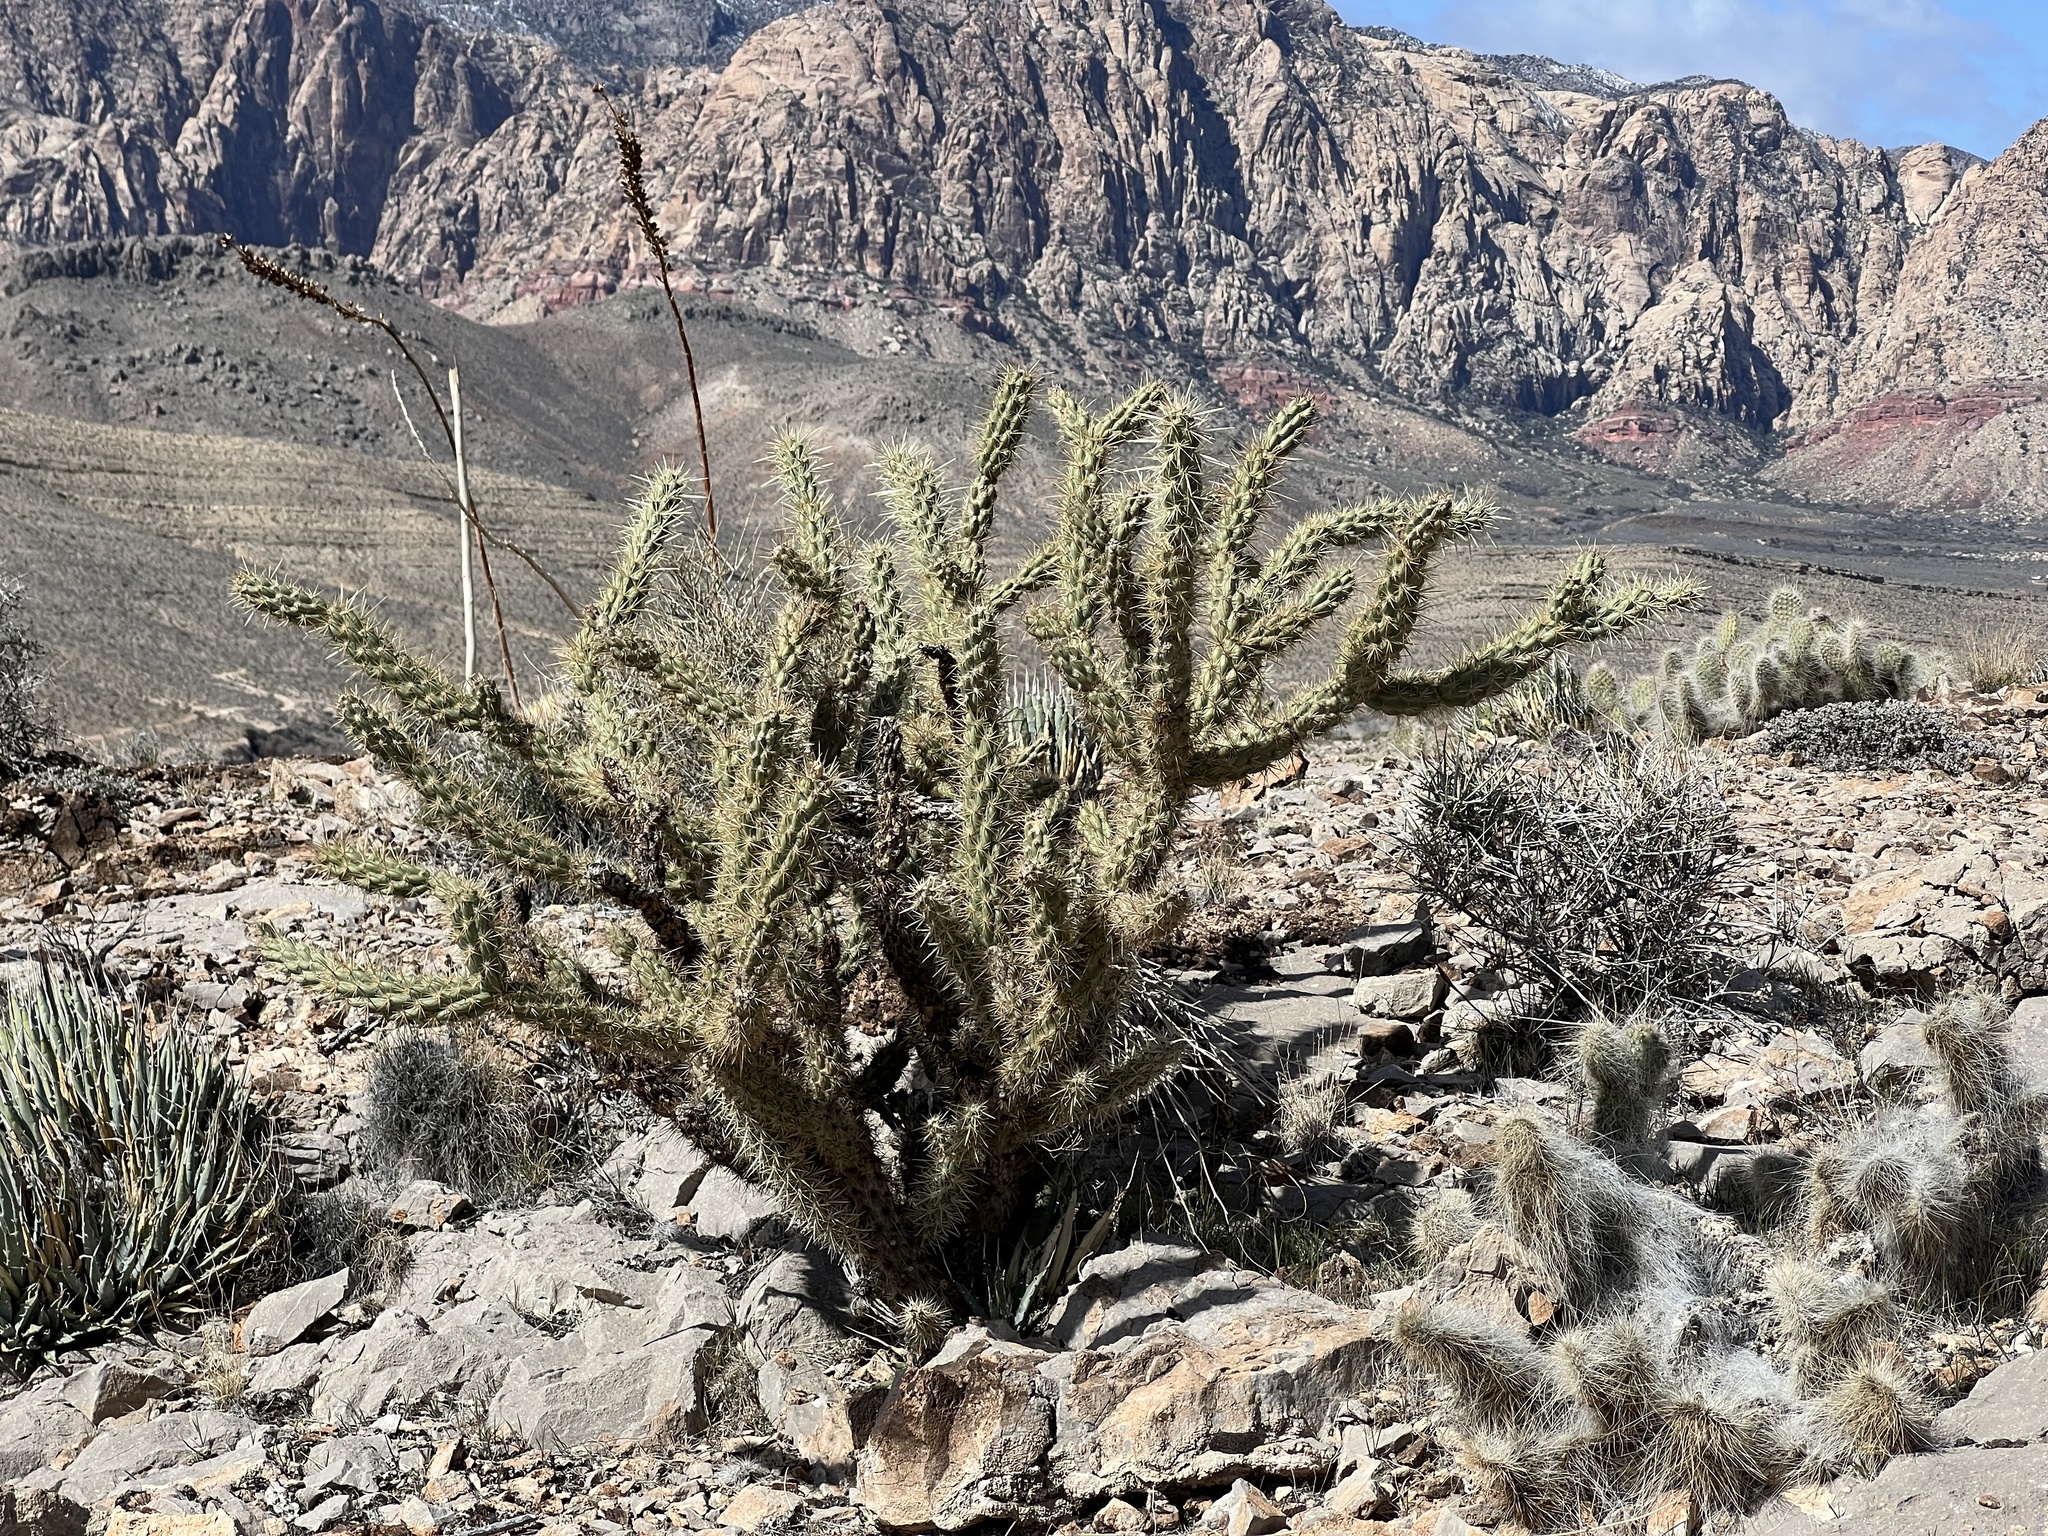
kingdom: Plantae
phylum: Tracheophyta
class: Magnoliopsida
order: Caryophyllales
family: Cactaceae
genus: Cylindropuntia
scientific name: Cylindropuntia acanthocarpa
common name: Buckhorn cholla
